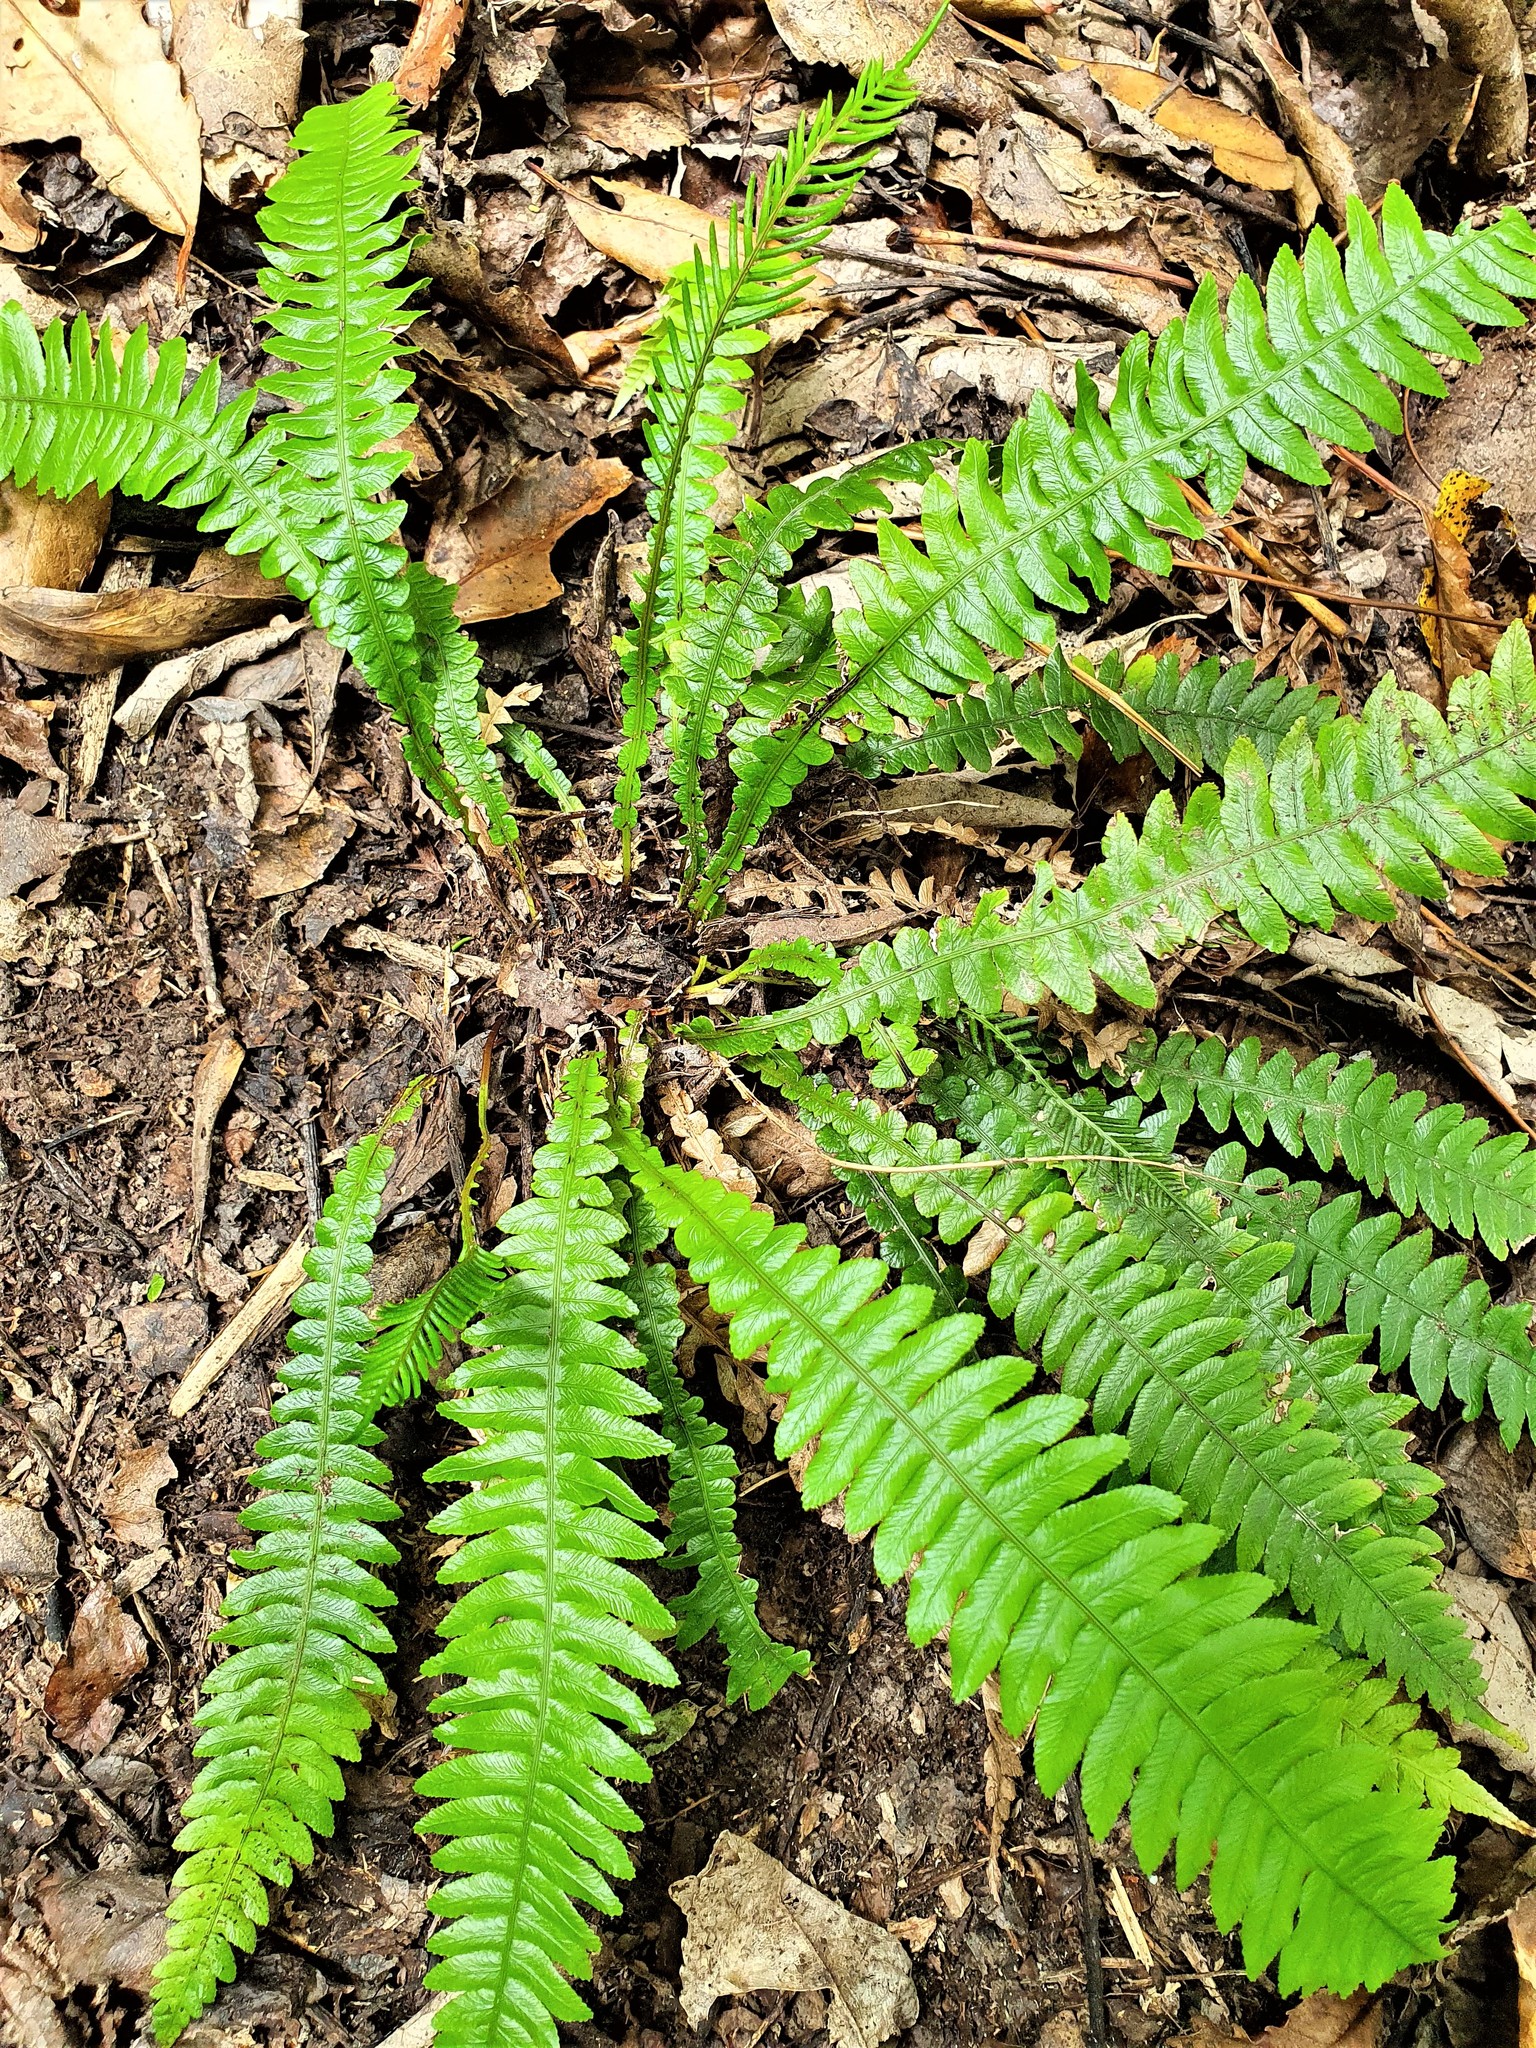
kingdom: Plantae
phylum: Tracheophyta
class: Polypodiopsida
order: Polypodiales
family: Blechnaceae
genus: Austroblechnum
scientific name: Austroblechnum lanceolatum
